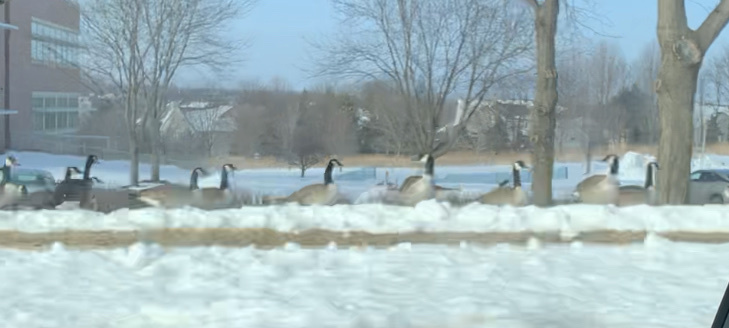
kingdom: Animalia
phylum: Chordata
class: Aves
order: Anseriformes
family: Anatidae
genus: Branta
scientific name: Branta canadensis
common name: Canada goose
